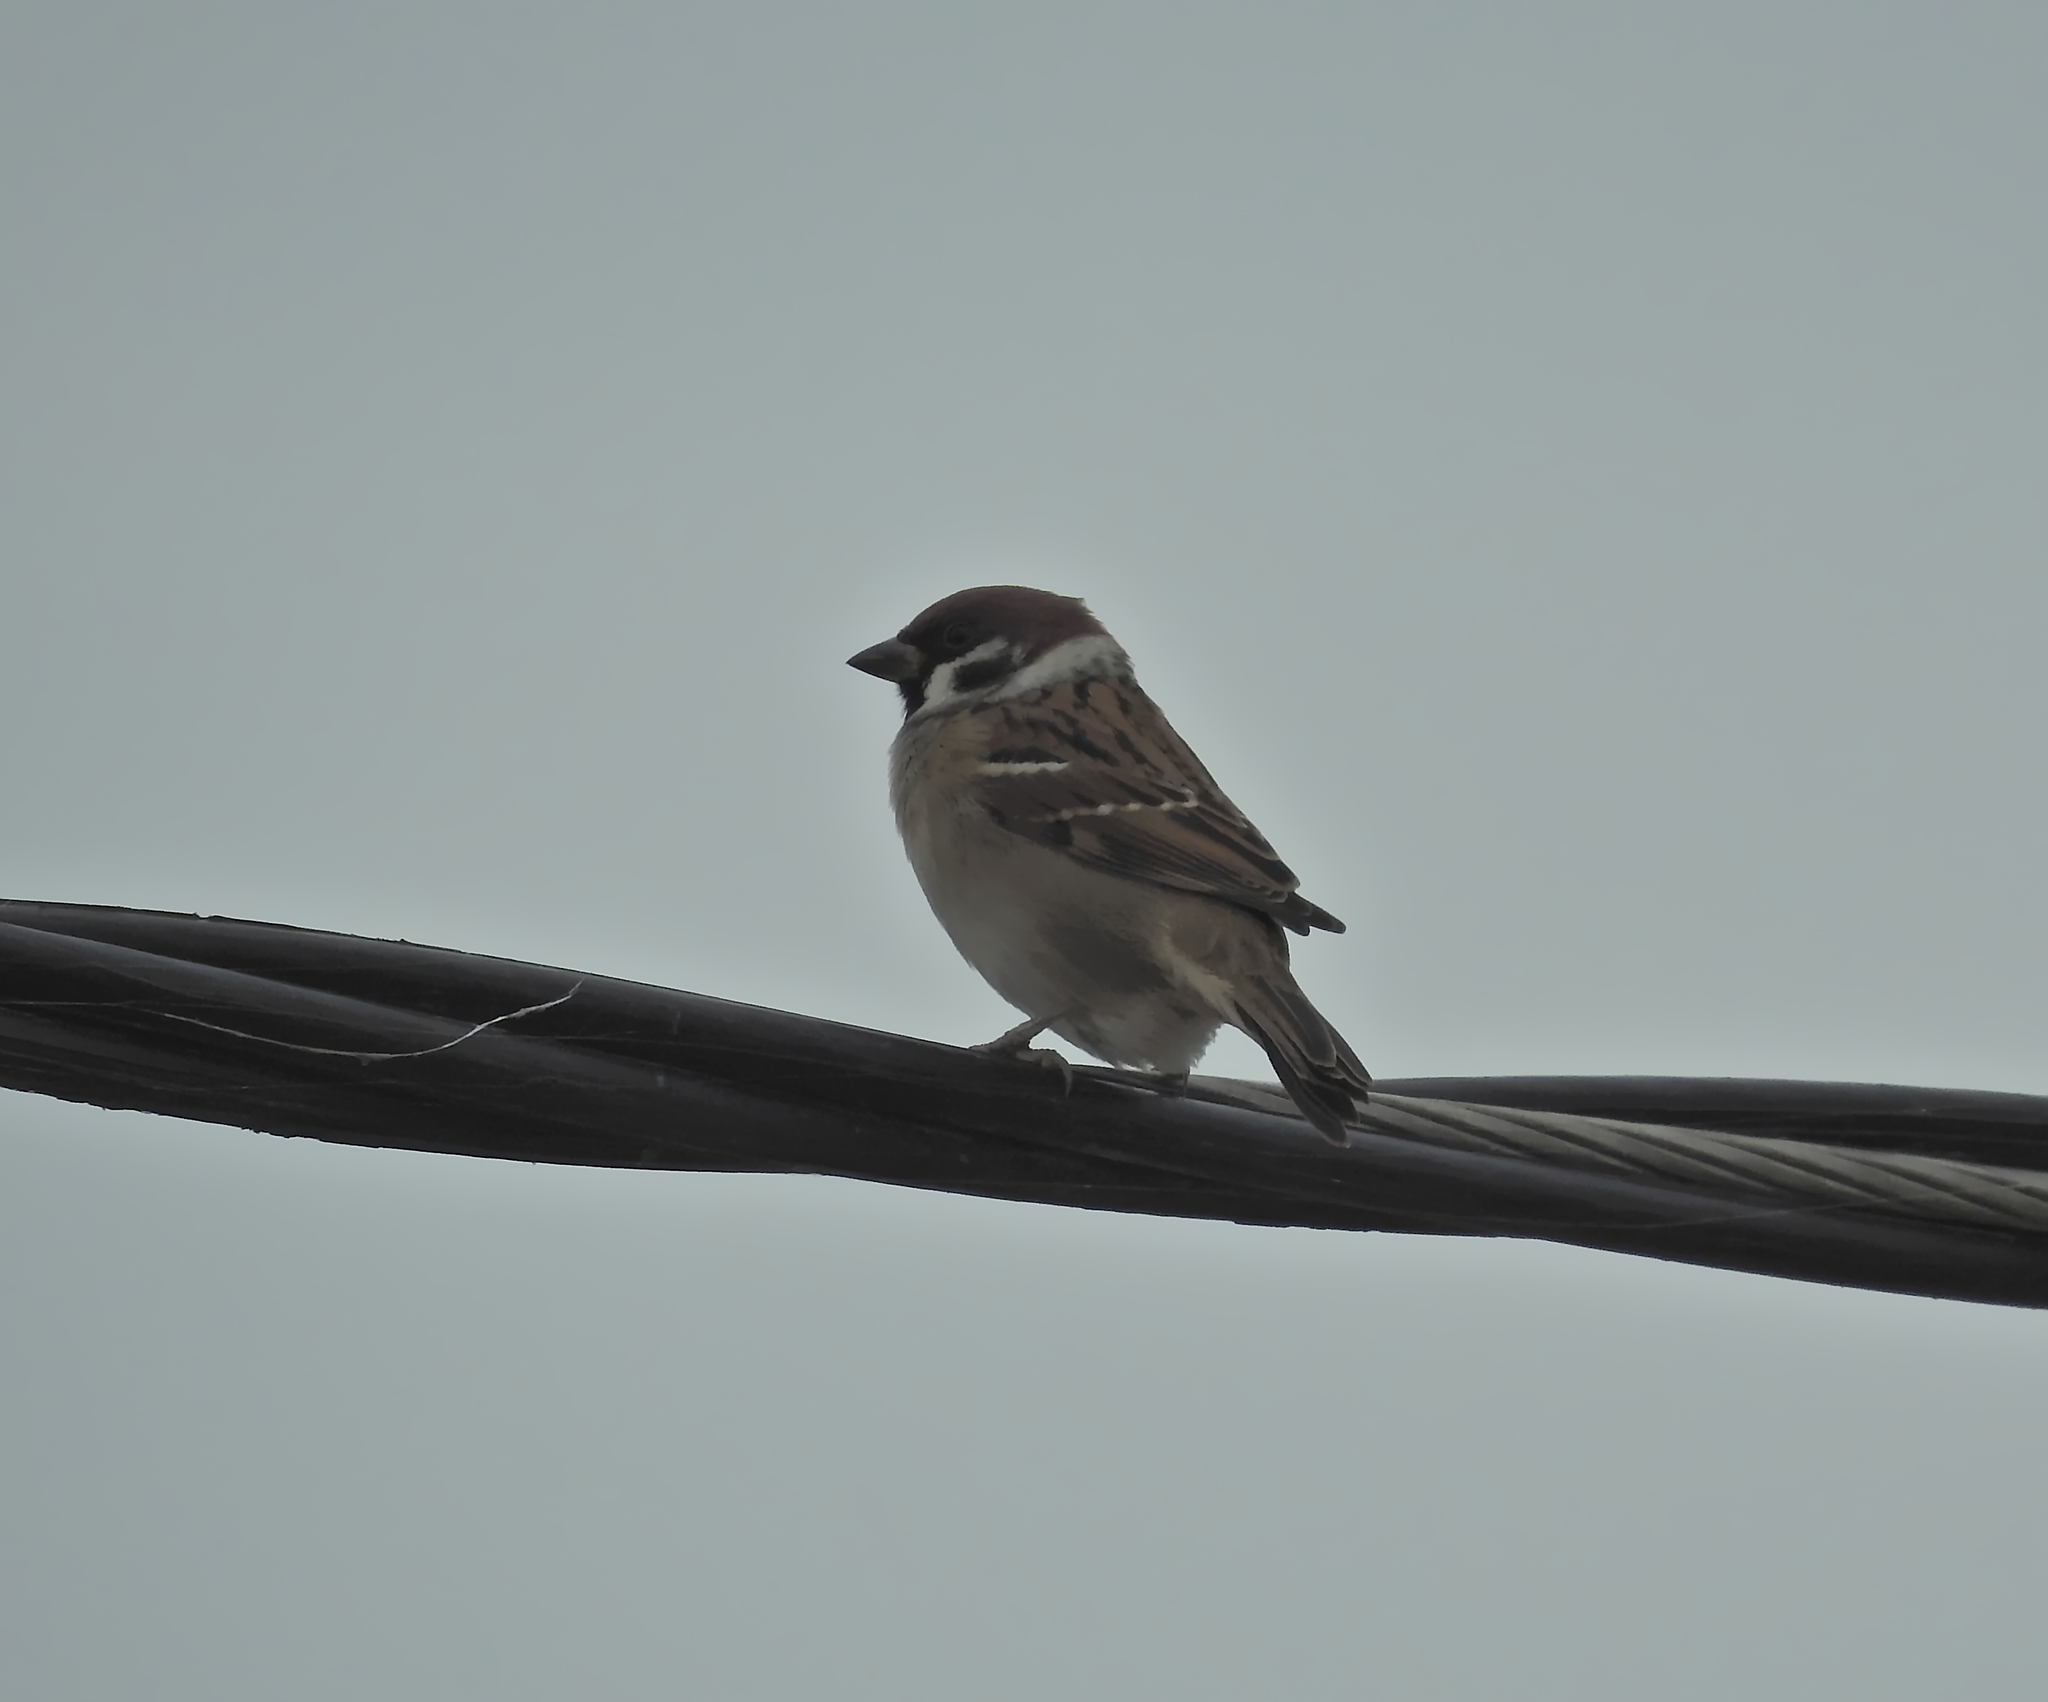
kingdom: Animalia
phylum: Chordata
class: Aves
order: Passeriformes
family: Passeridae
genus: Passer
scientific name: Passer montanus
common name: Eurasian tree sparrow
